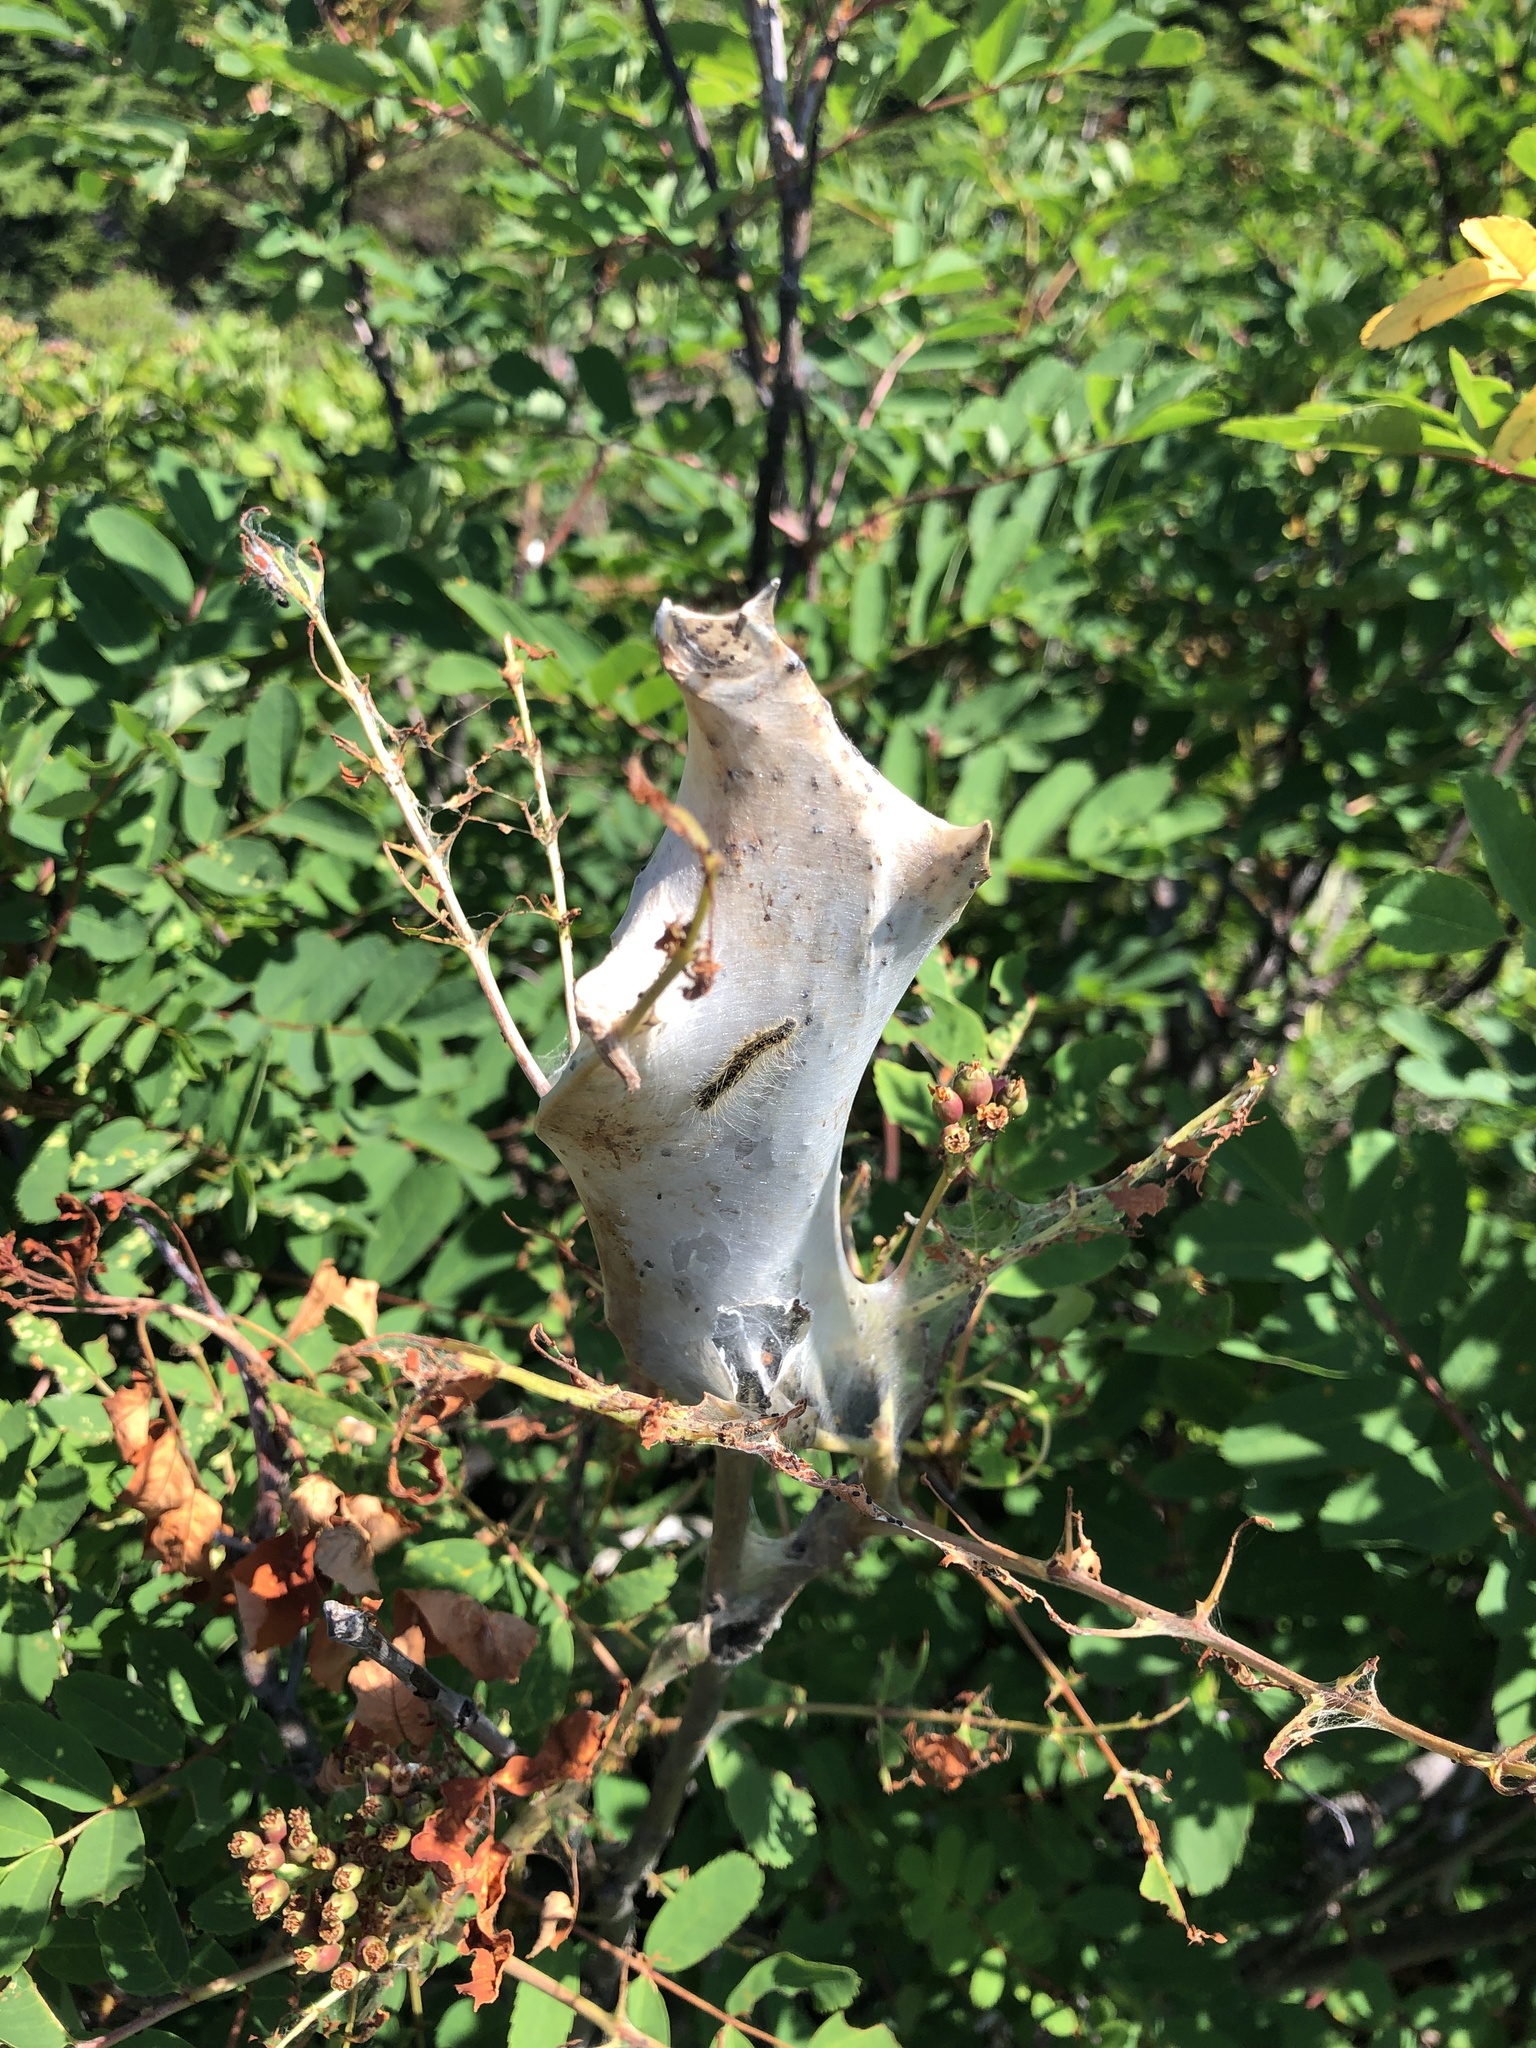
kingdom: Animalia
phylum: Arthropoda
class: Insecta
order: Lepidoptera
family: Lasiocampidae
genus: Malacosoma
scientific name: Malacosoma californica
